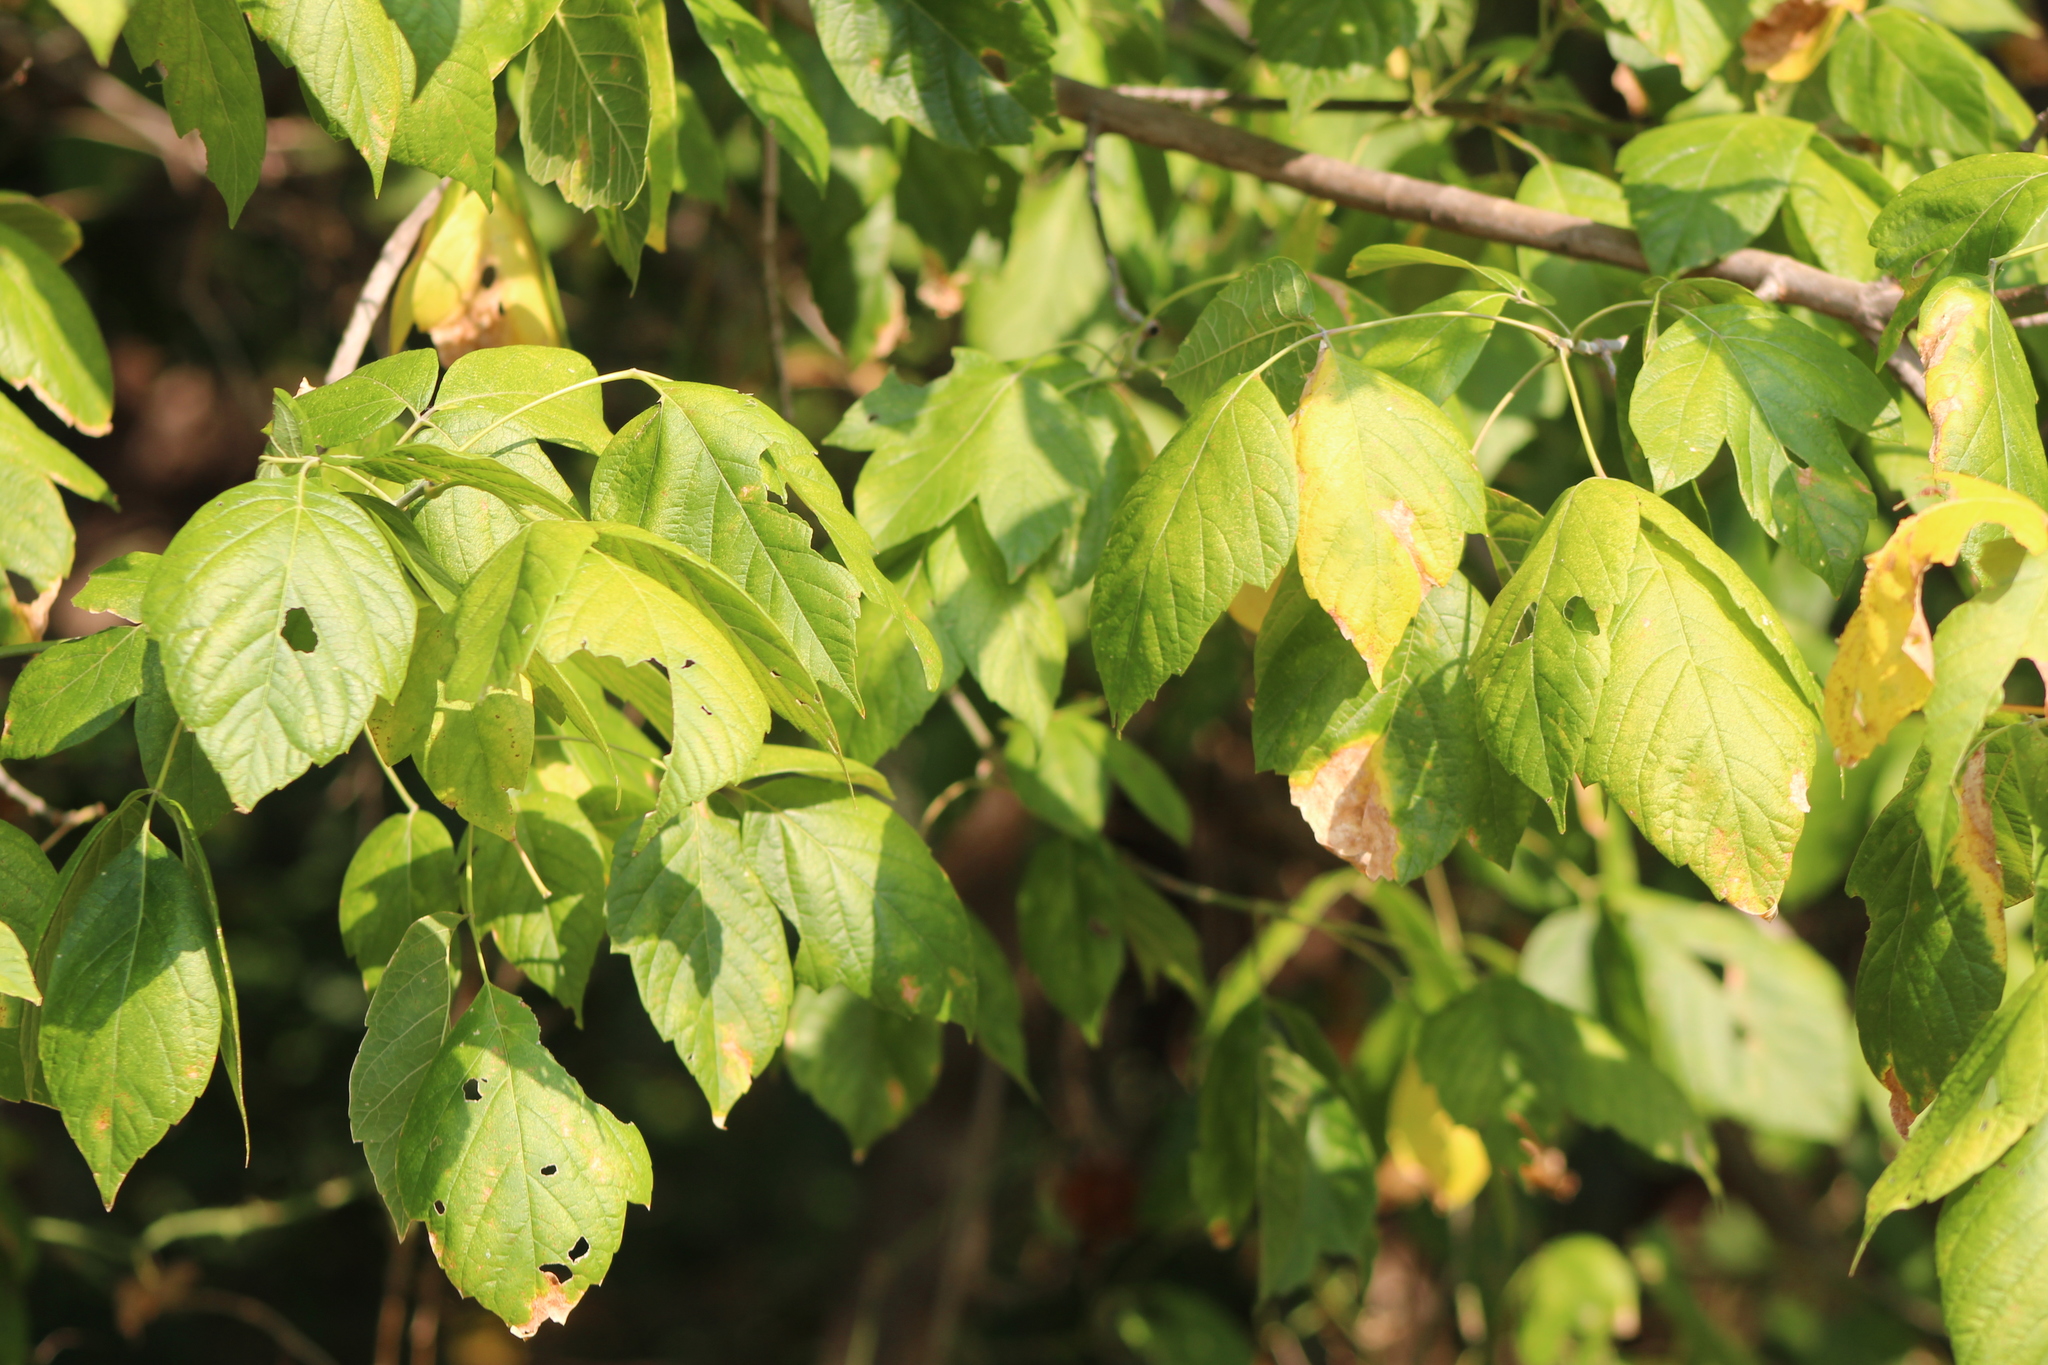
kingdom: Plantae
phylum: Tracheophyta
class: Magnoliopsida
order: Sapindales
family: Sapindaceae
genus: Acer
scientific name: Acer negundo
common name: Ashleaf maple
